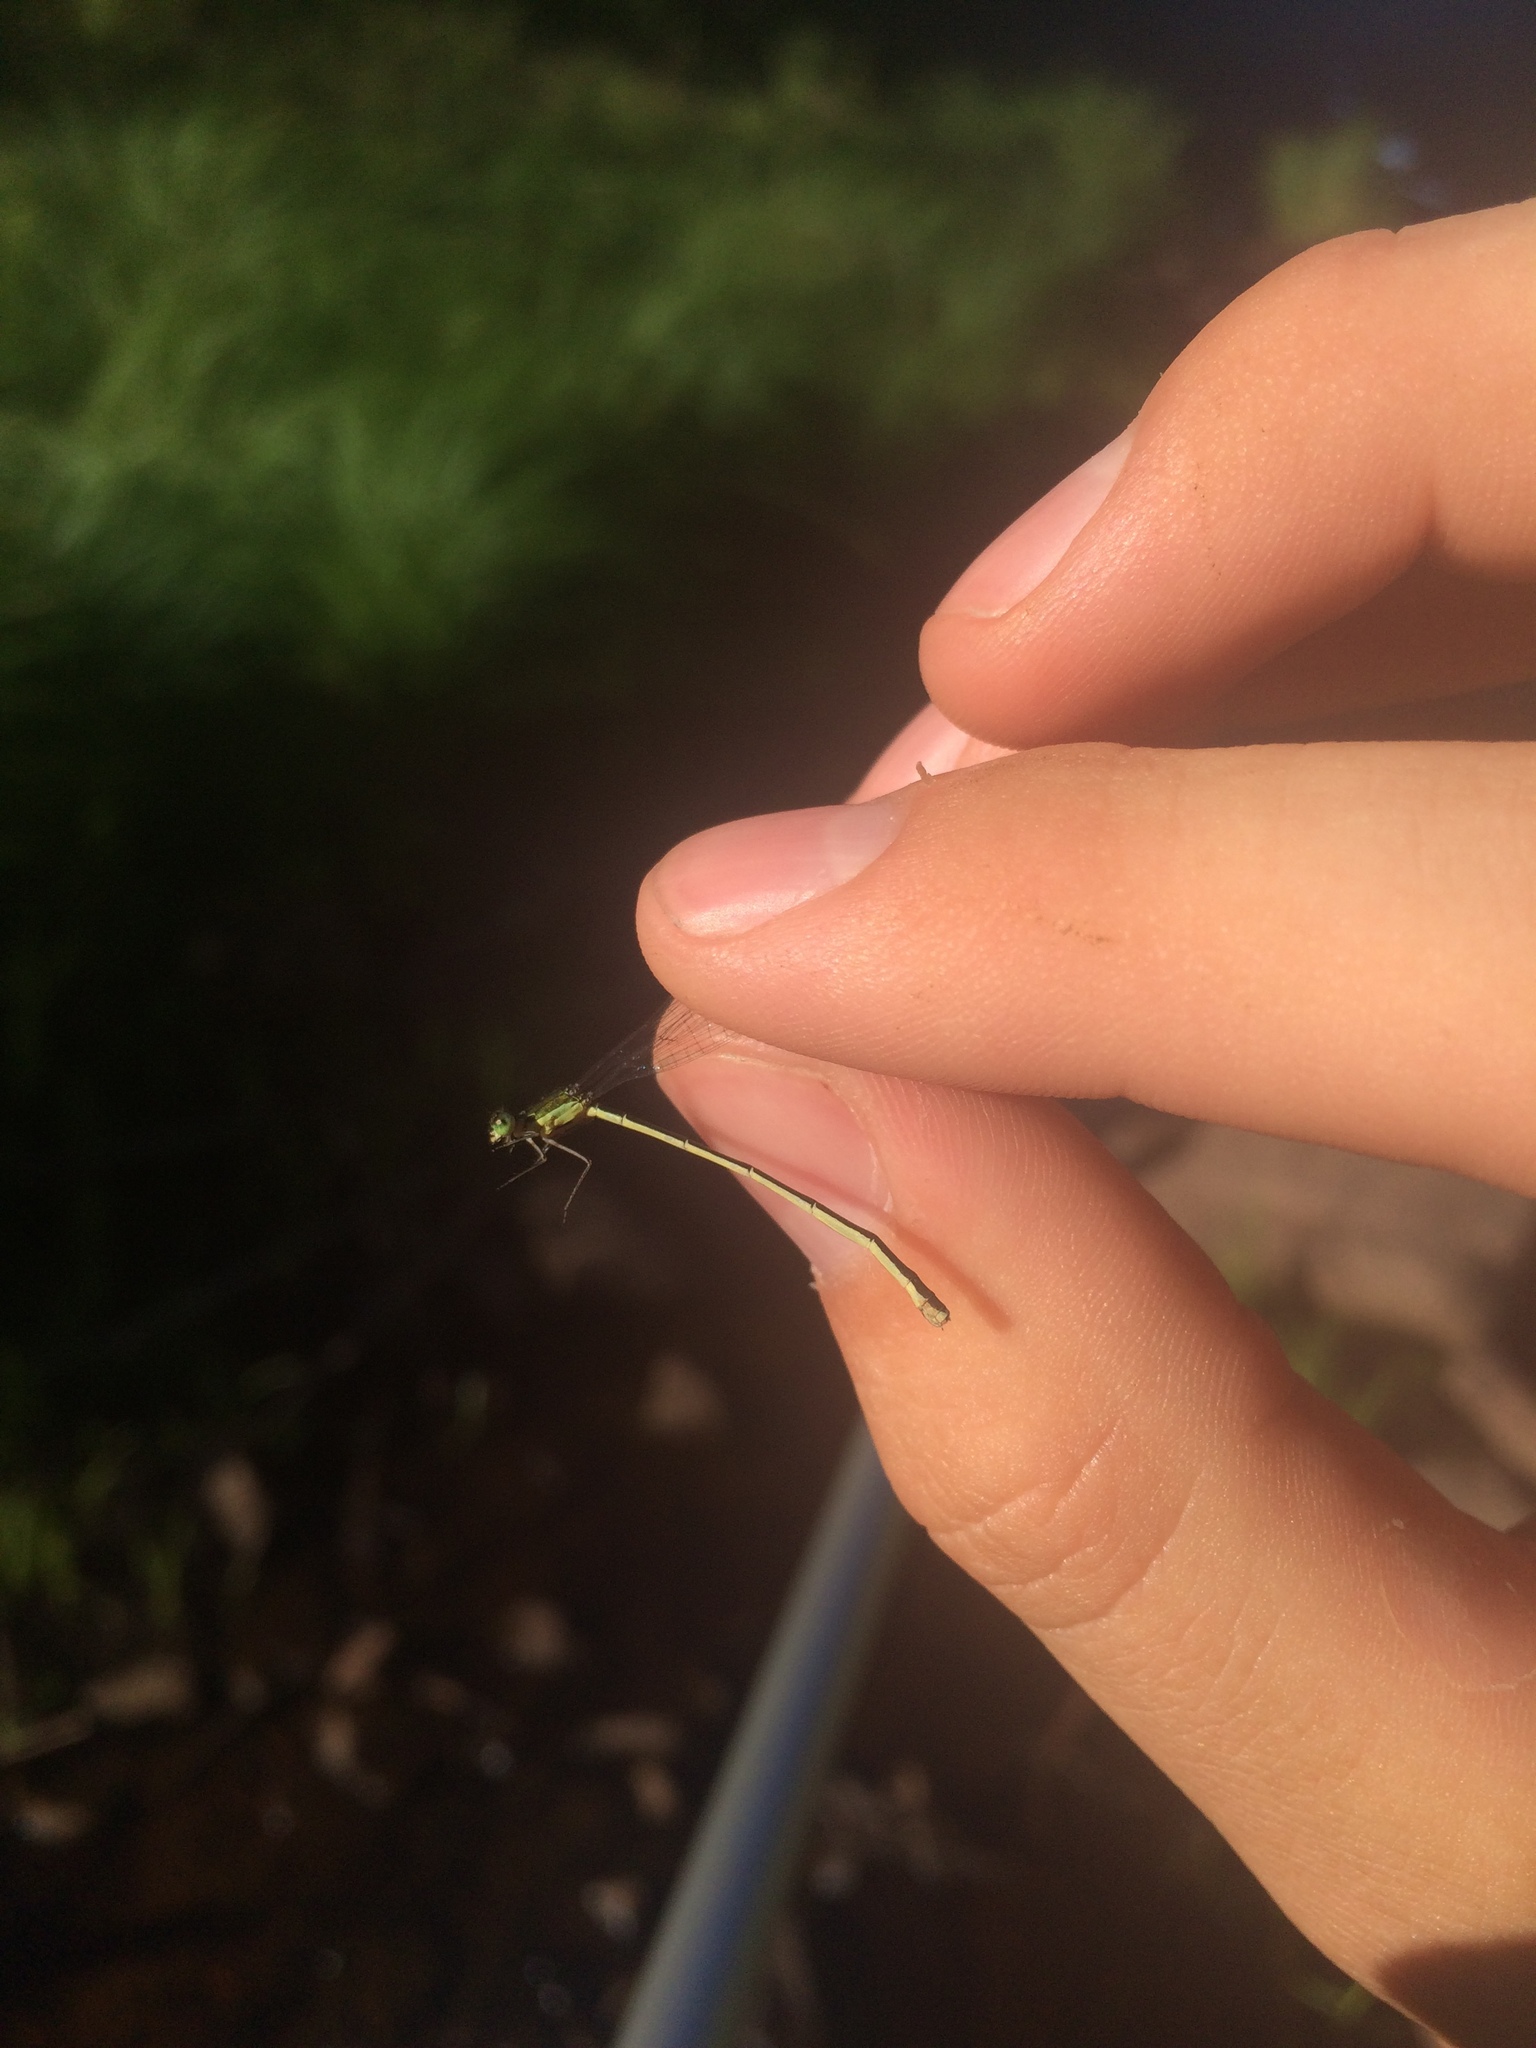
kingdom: Animalia
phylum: Arthropoda
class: Insecta
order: Odonata
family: Coenagrionidae
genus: Nehalennia
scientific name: Nehalennia irene
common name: Sedge sprite
